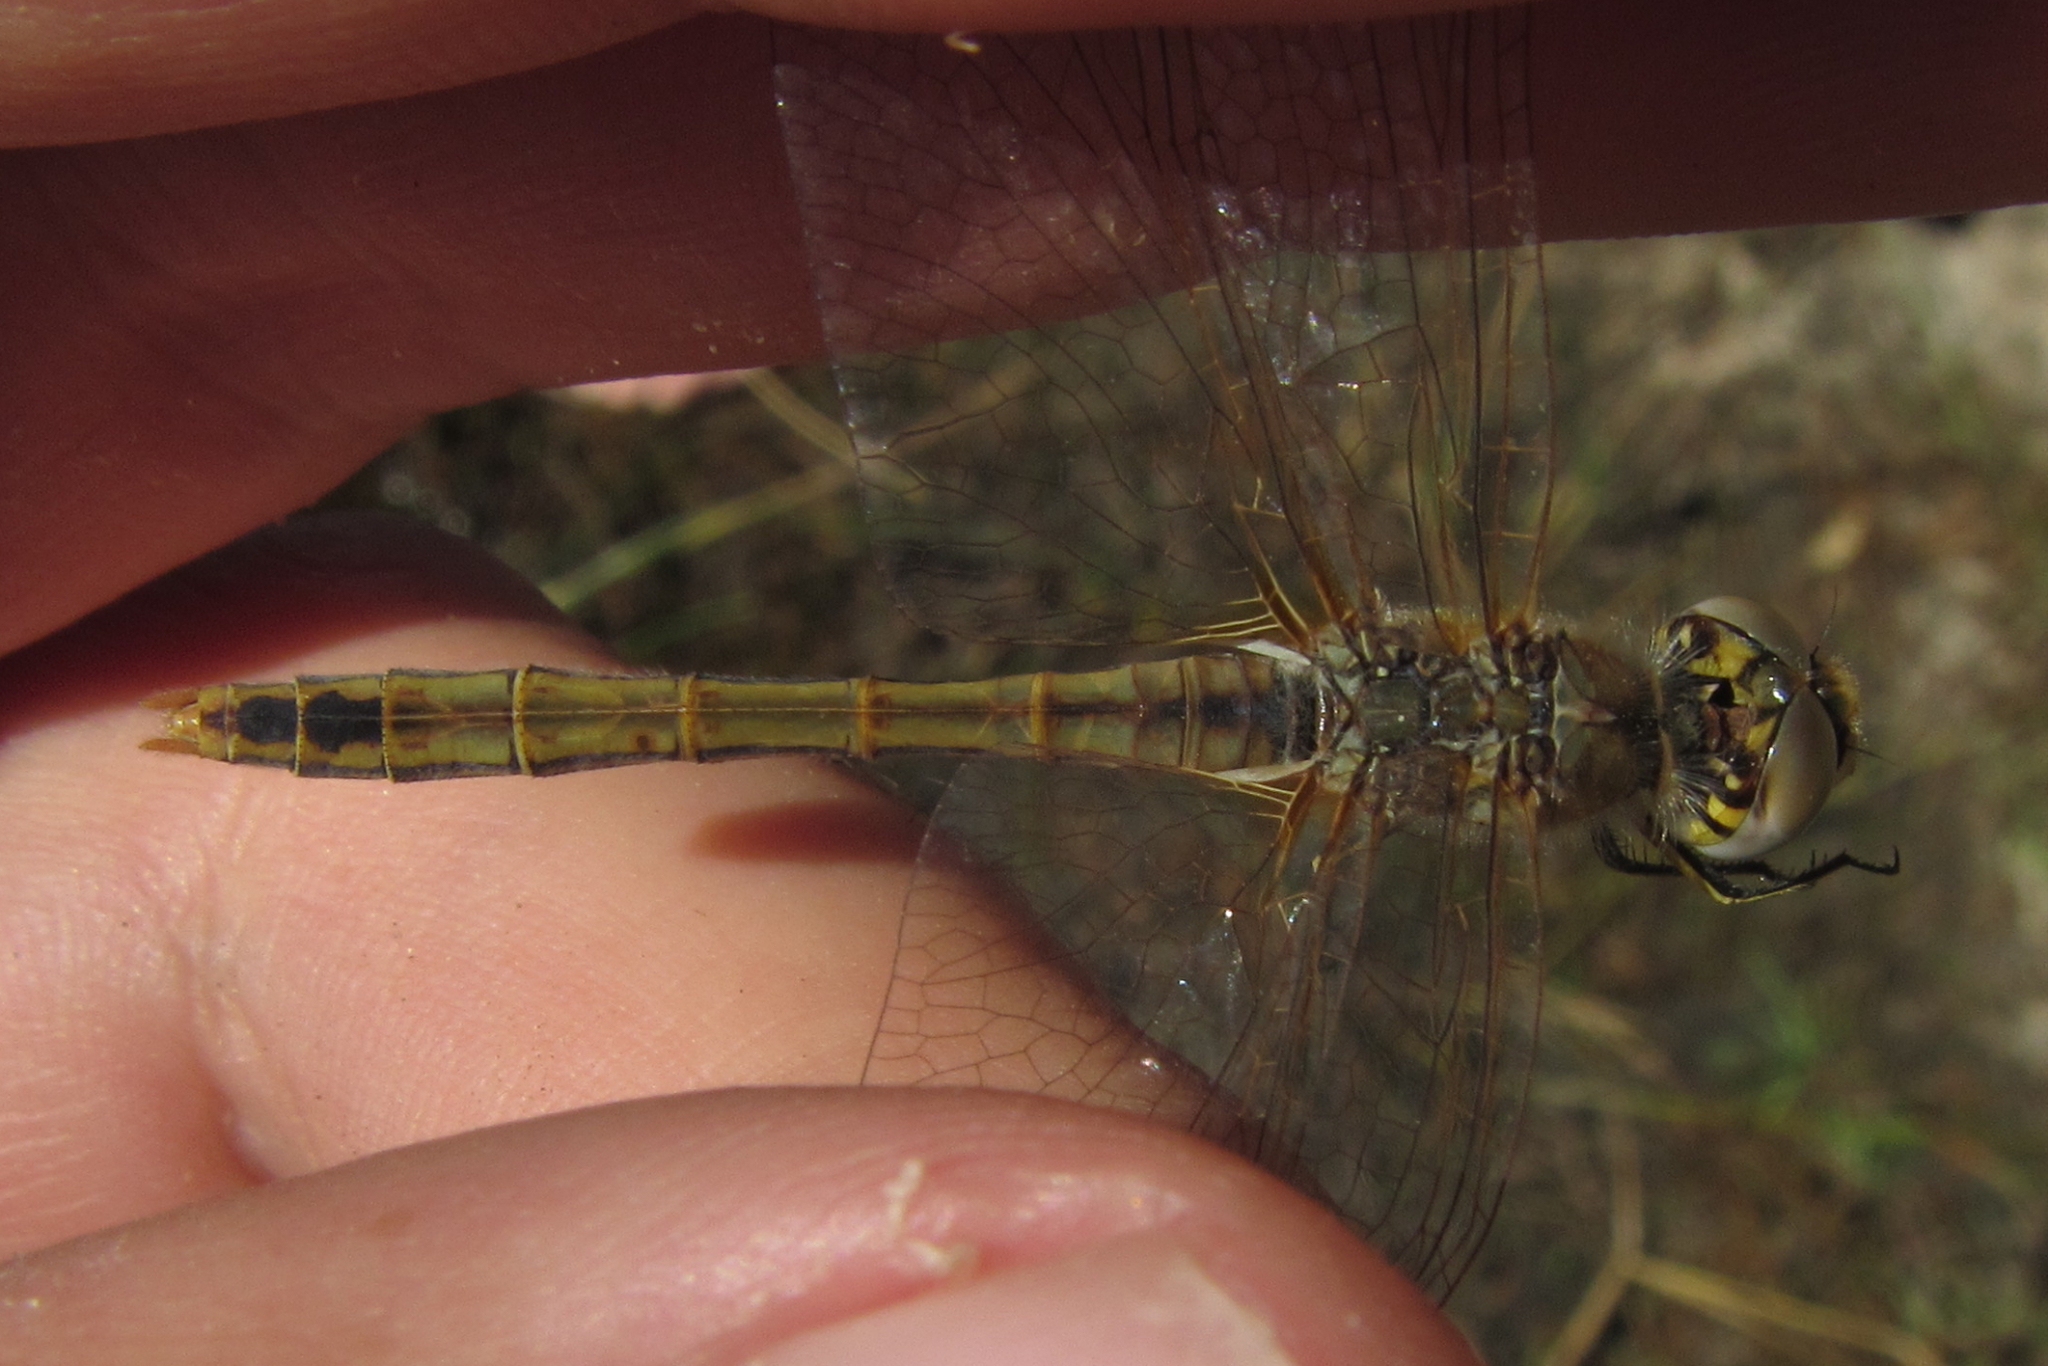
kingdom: Animalia
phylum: Arthropoda
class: Insecta
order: Odonata
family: Libellulidae
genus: Sympetrum
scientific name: Sympetrum fonscolombii
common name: Red-veined darter
